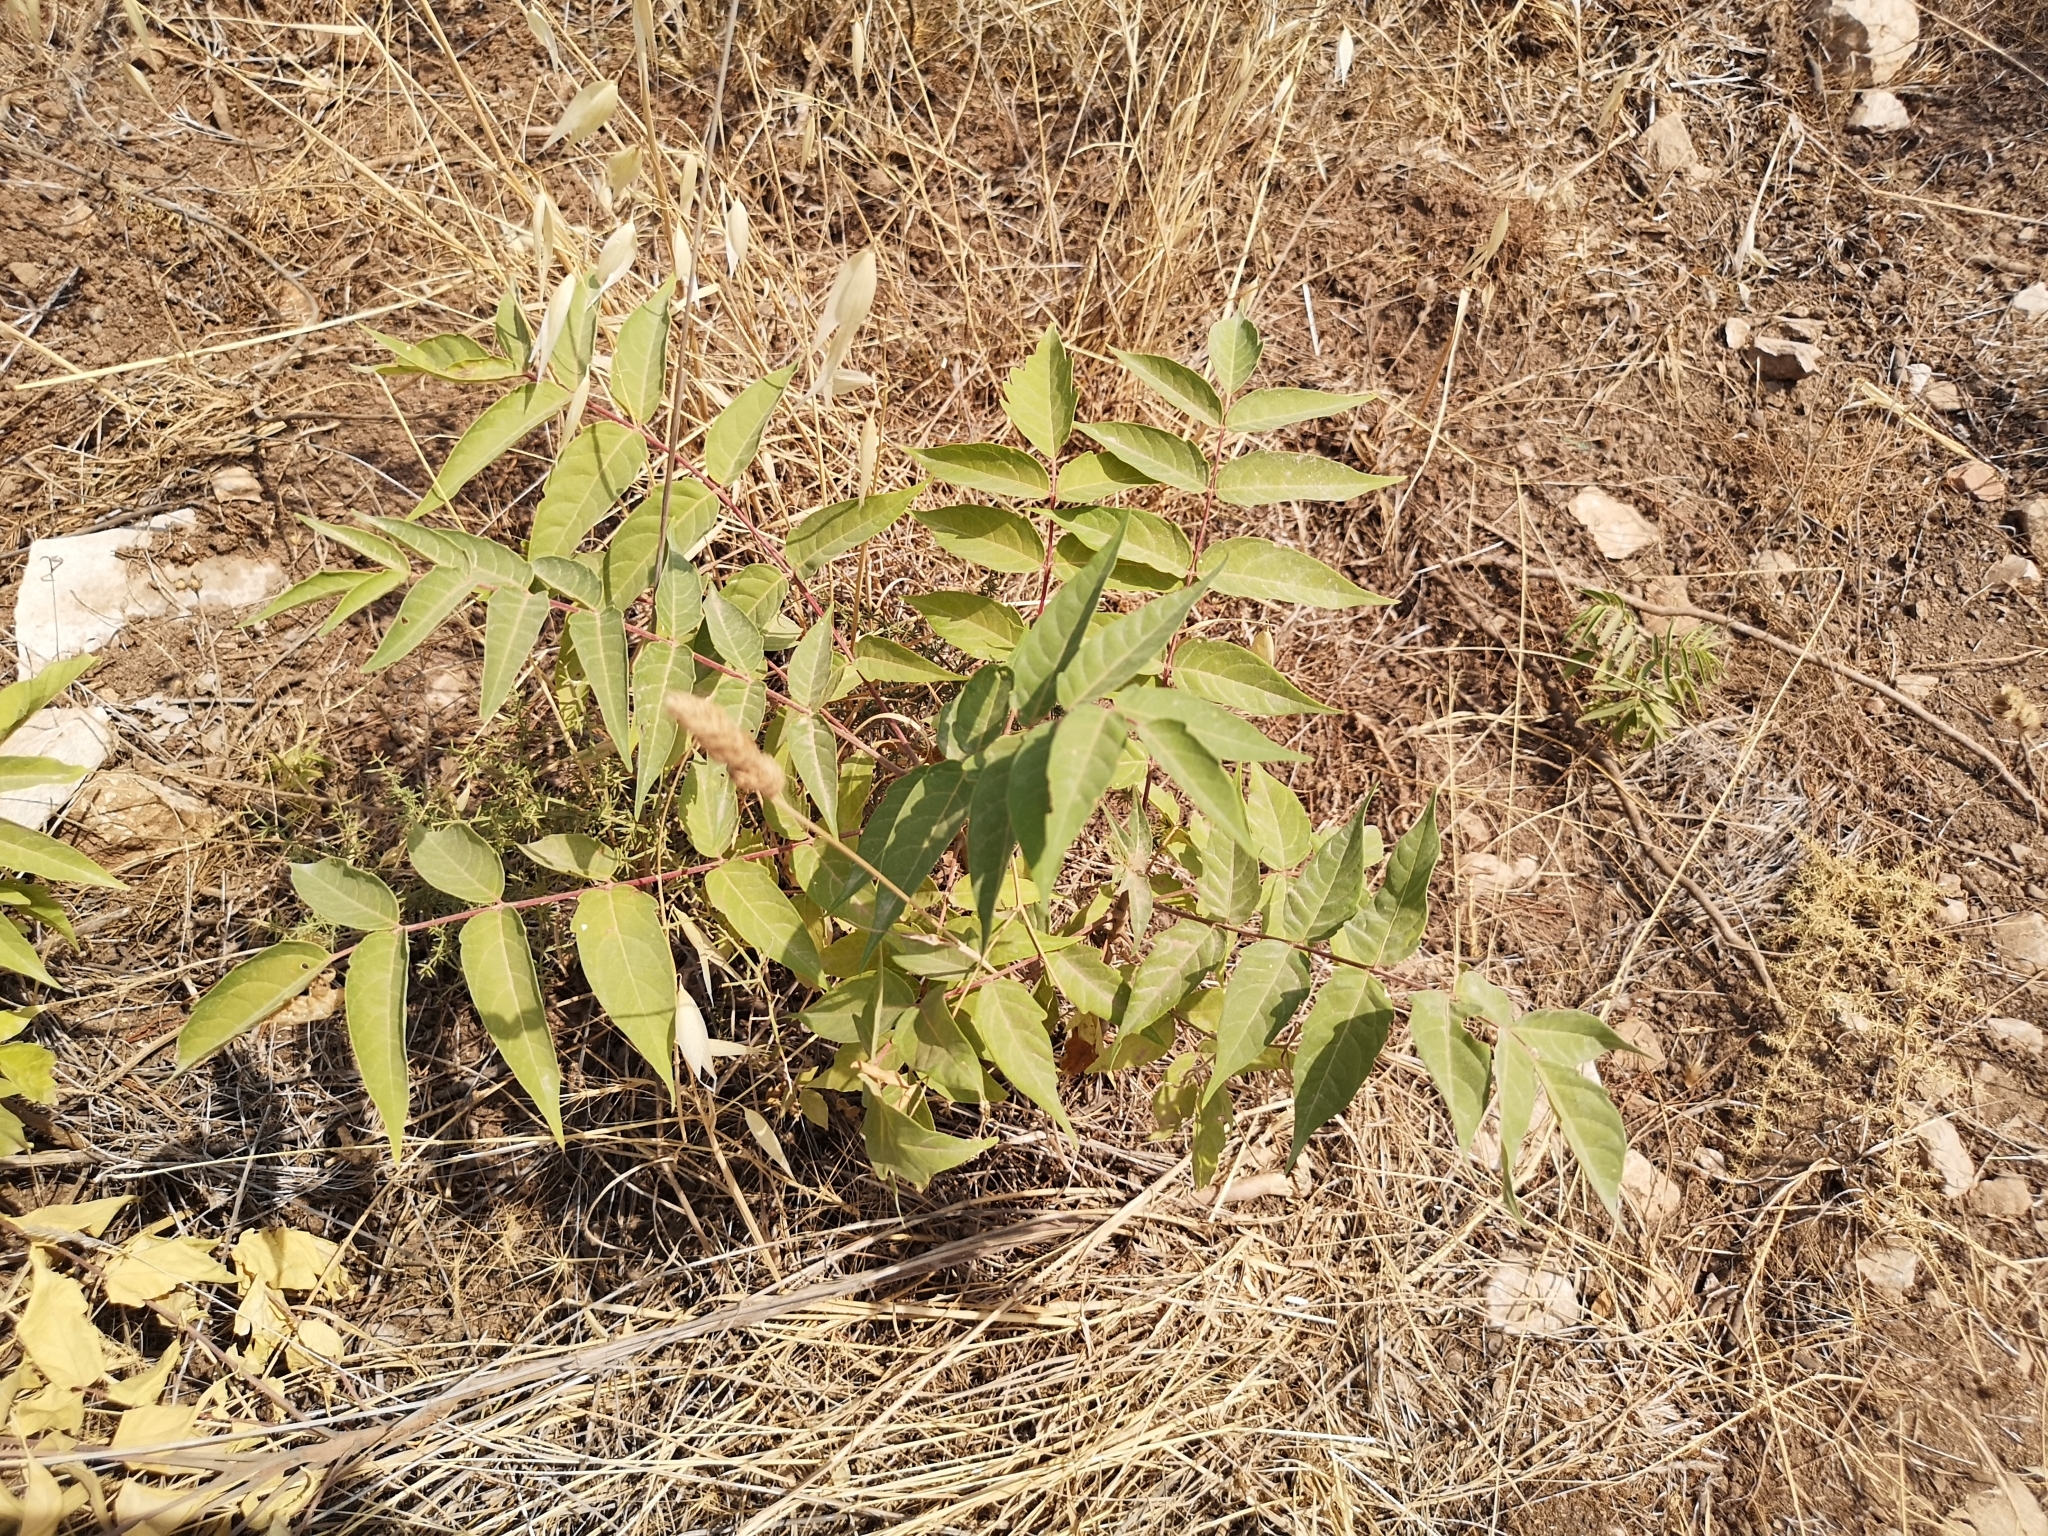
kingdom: Plantae
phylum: Tracheophyta
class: Magnoliopsida
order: Sapindales
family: Simaroubaceae
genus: Ailanthus
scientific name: Ailanthus altissima
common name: Tree-of-heaven
